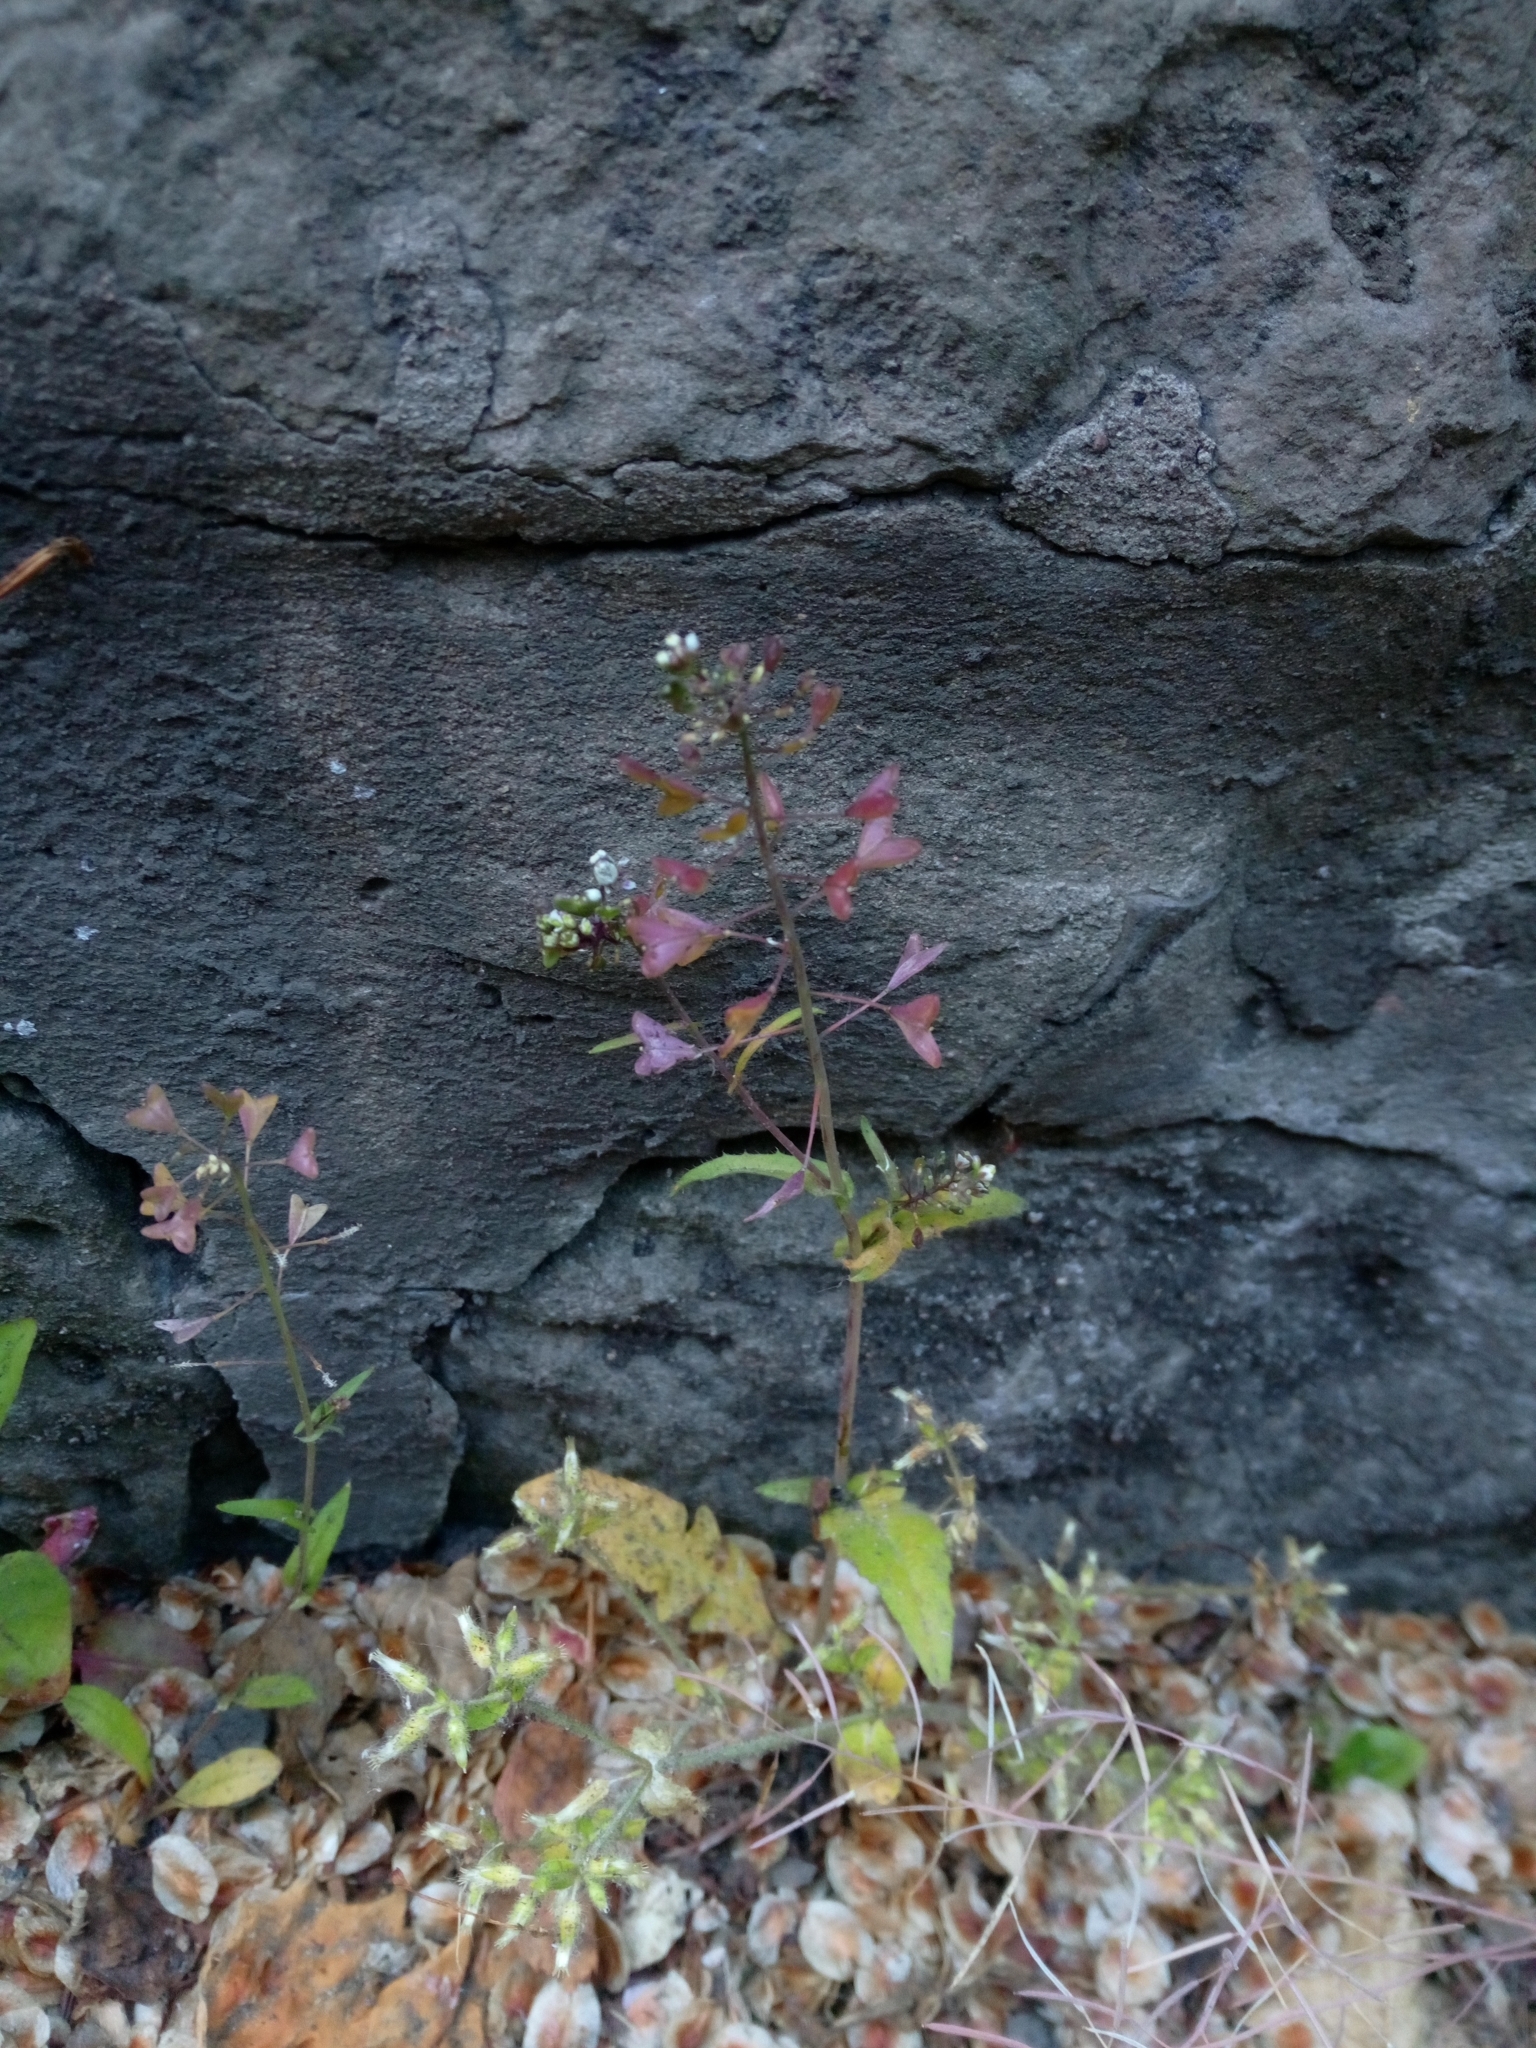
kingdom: Plantae
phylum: Tracheophyta
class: Magnoliopsida
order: Brassicales
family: Brassicaceae
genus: Capsella
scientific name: Capsella bursa-pastoris
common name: Shepherd's purse
